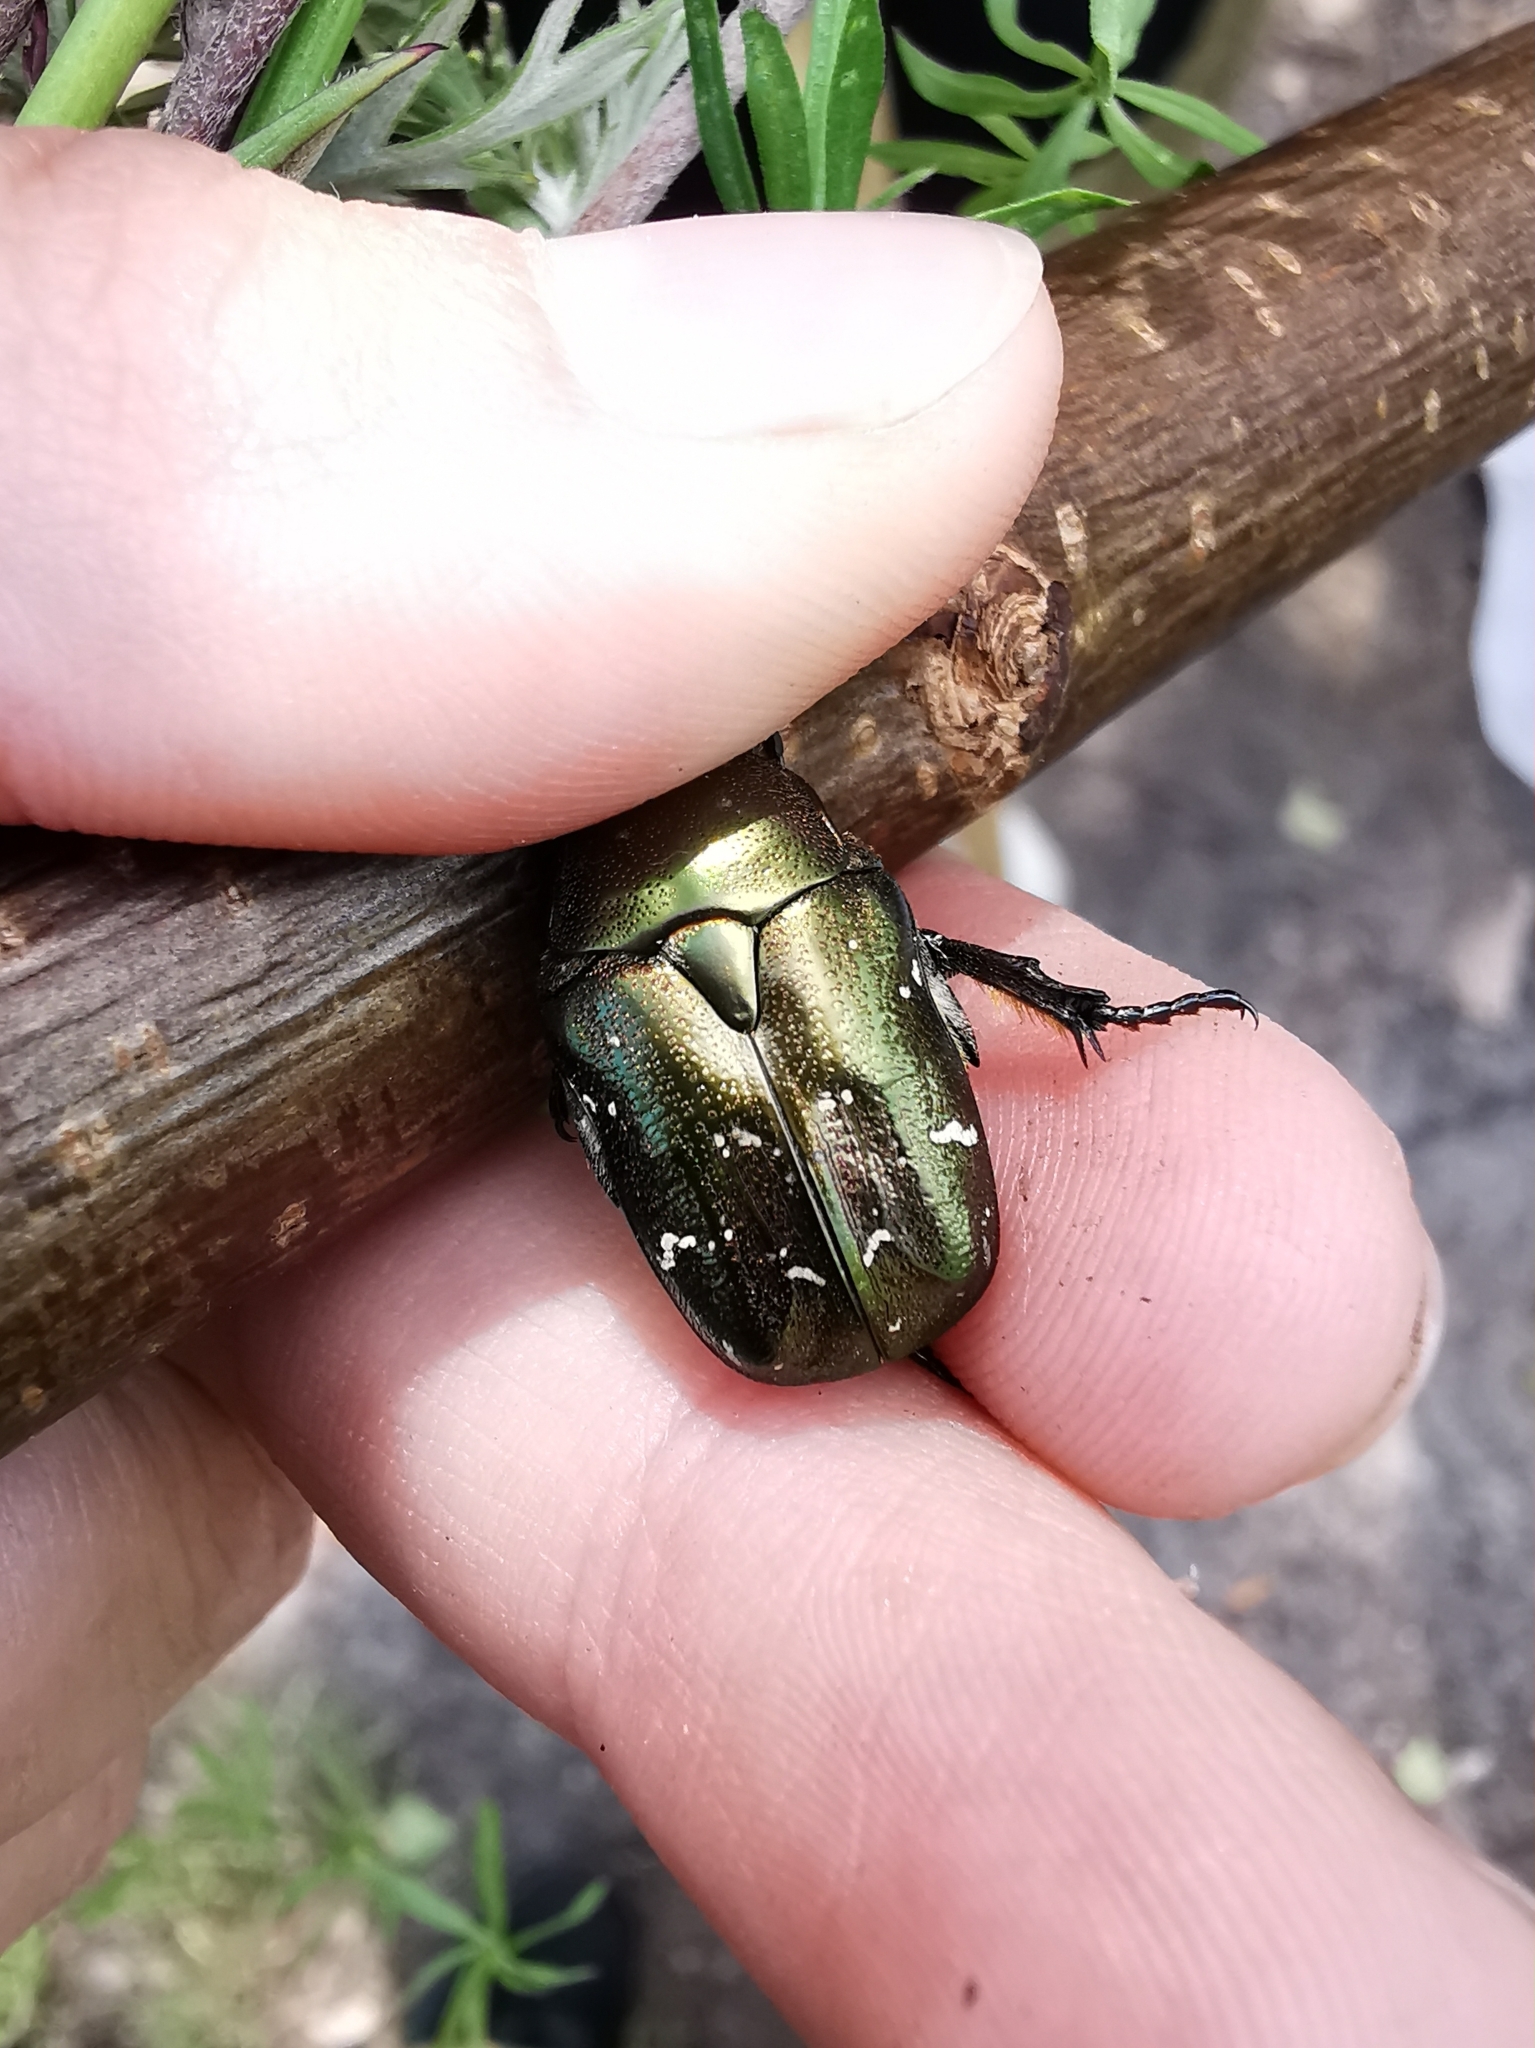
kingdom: Animalia
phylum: Arthropoda
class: Insecta
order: Coleoptera
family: Scarabaeidae
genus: Protaetia
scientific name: Protaetia cuprea
